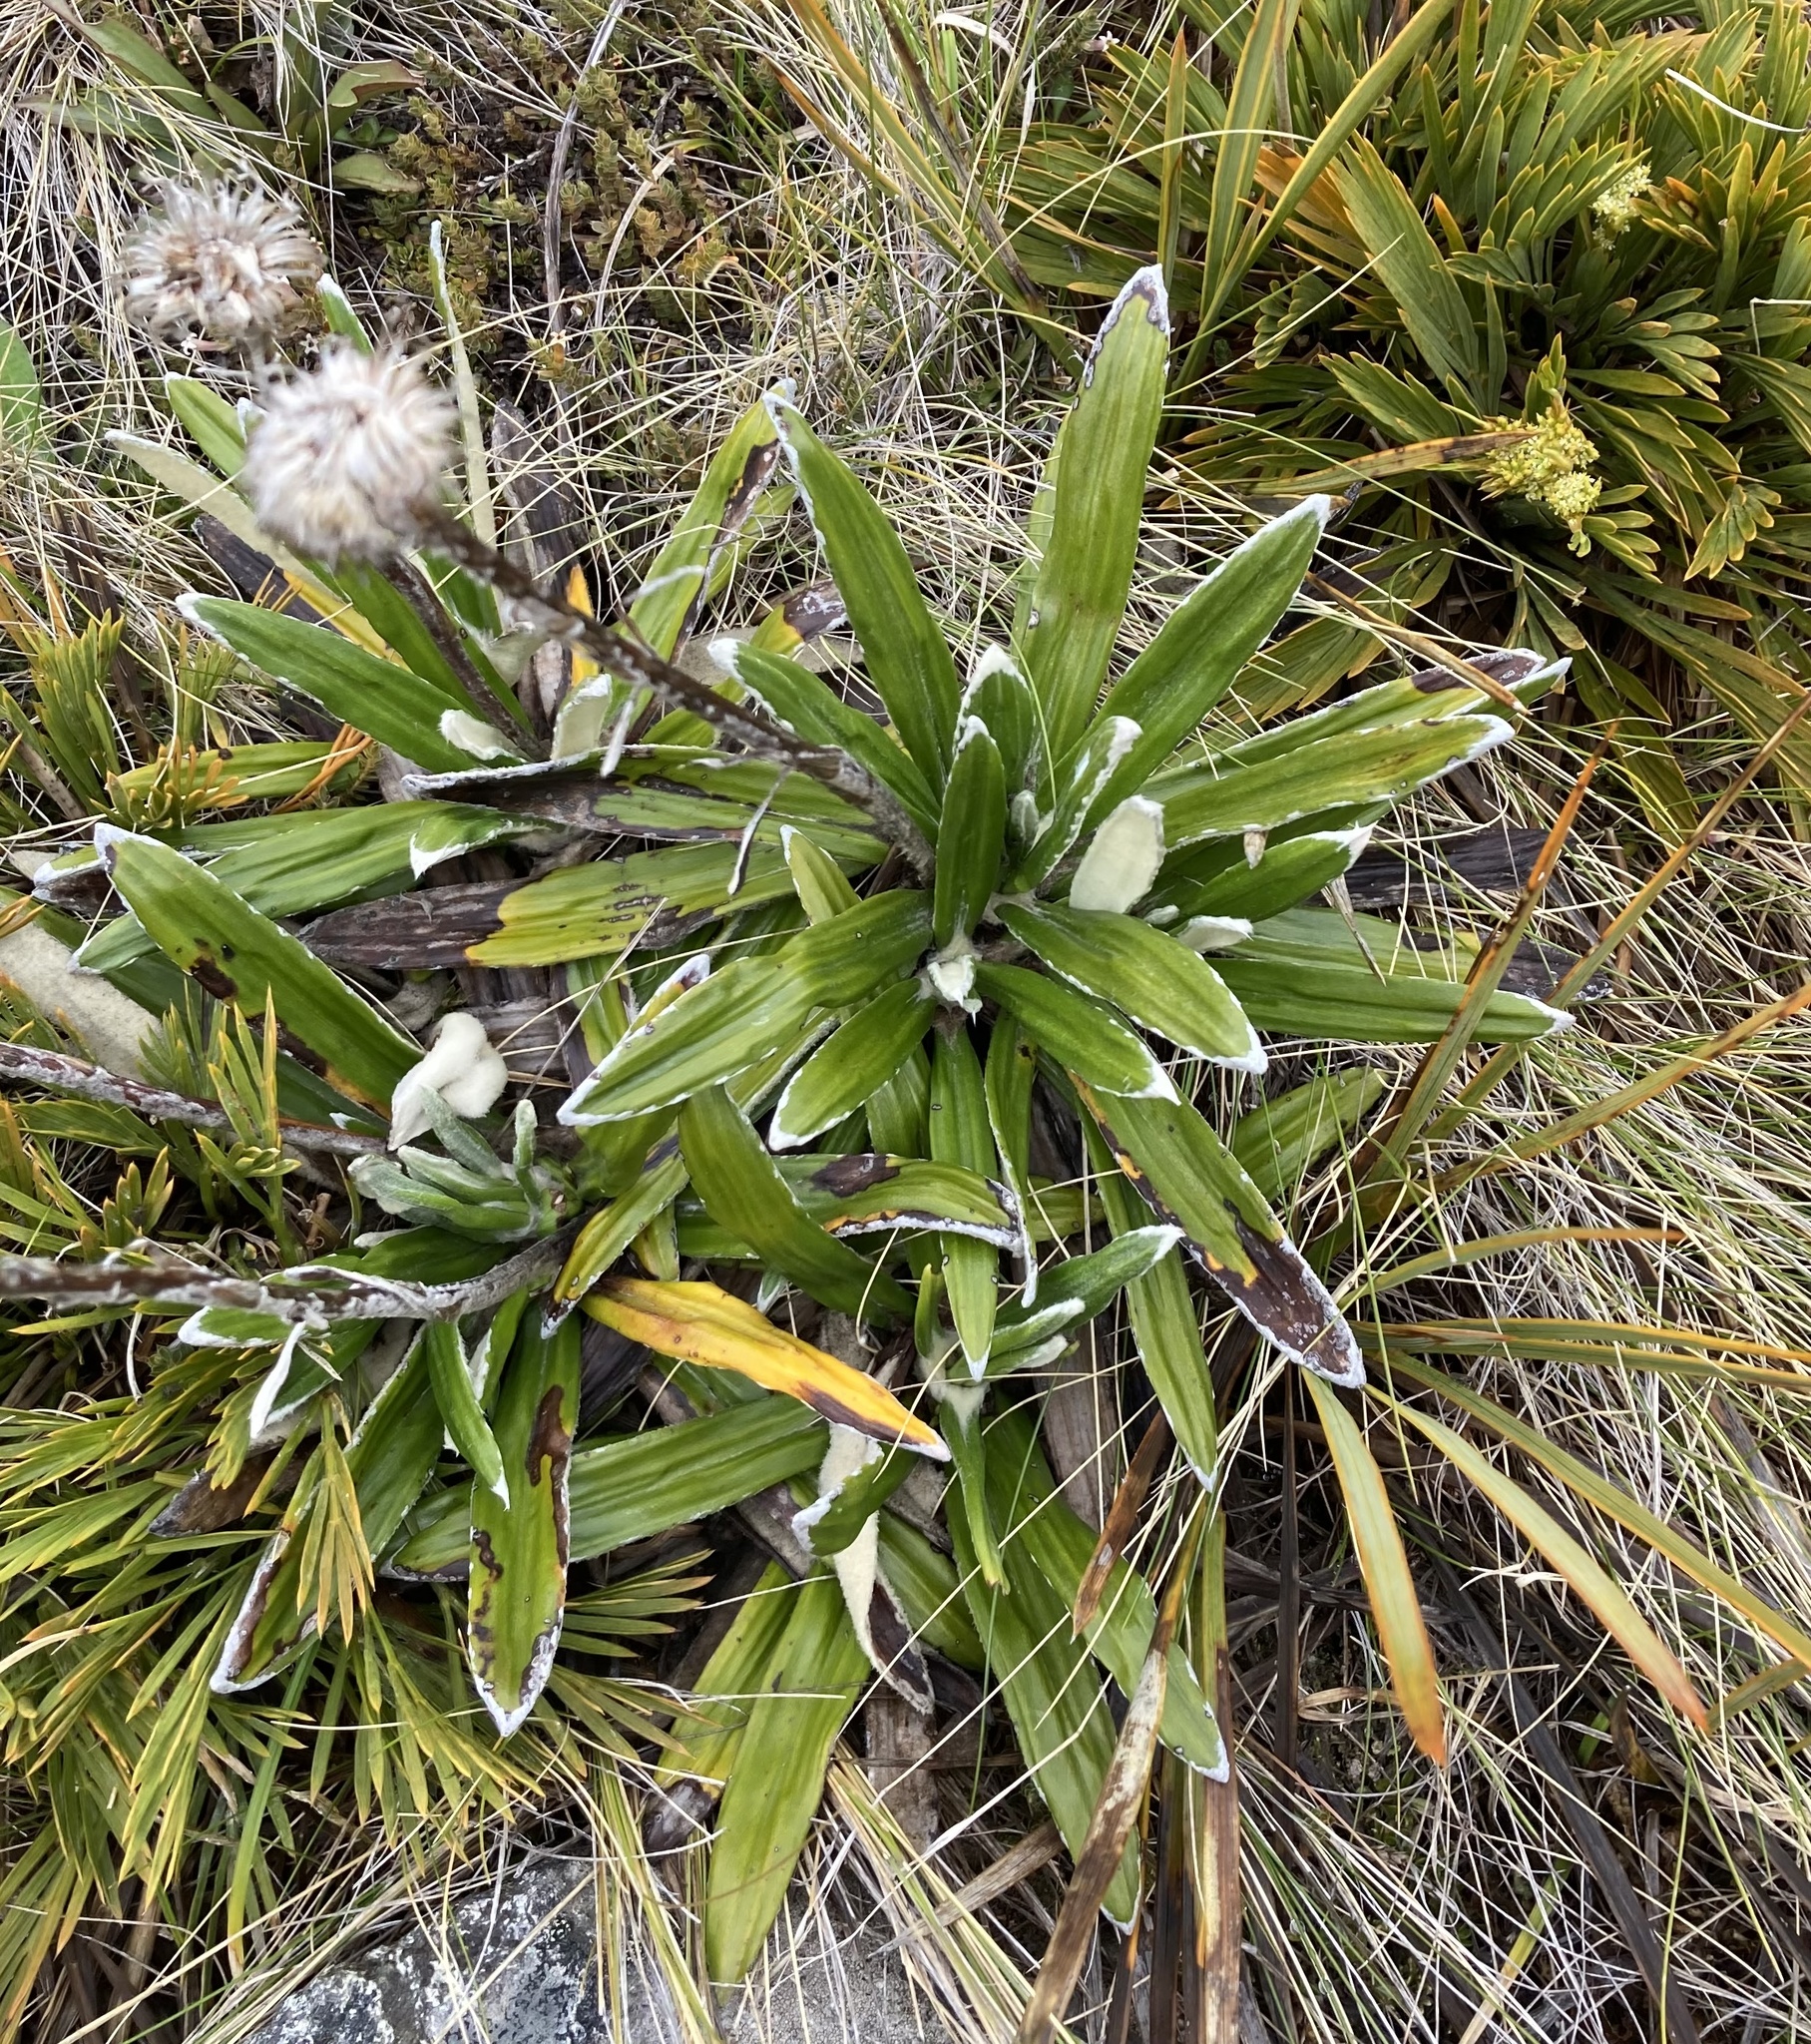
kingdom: Plantae
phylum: Tracheophyta
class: Magnoliopsida
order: Asterales
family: Asteraceae
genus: Celmisia
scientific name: Celmisia spectabilis
